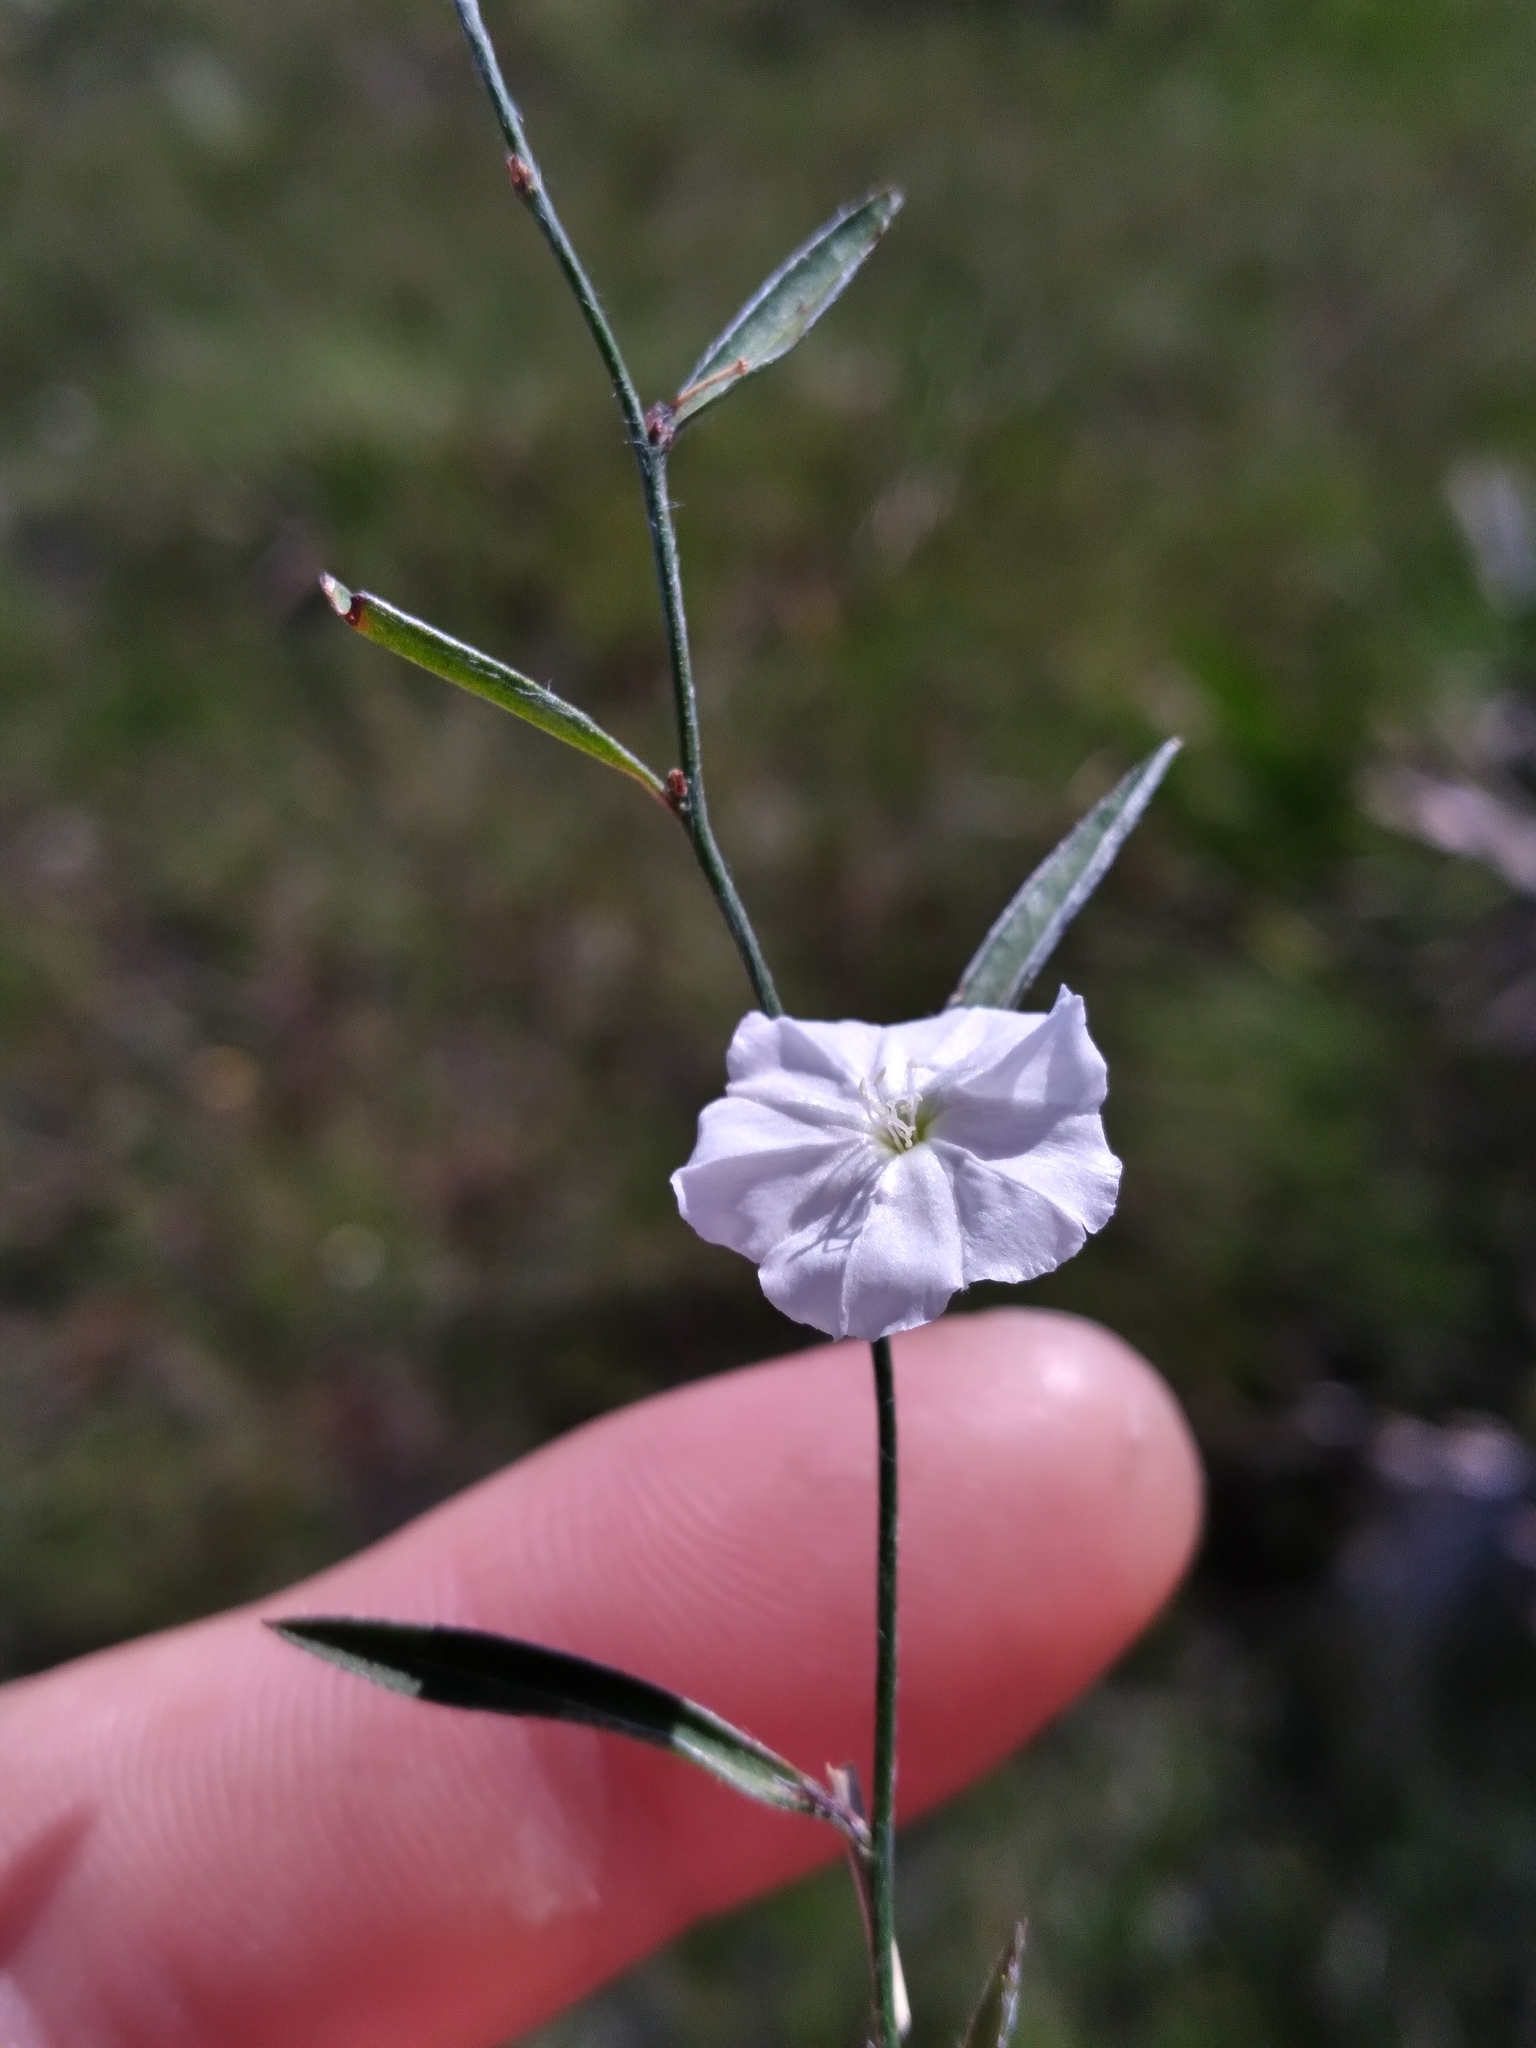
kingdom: Plantae
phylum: Tracheophyta
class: Magnoliopsida
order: Solanales
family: Convolvulaceae
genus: Evolvulus
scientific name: Evolvulus sericeus
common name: Blue dots
